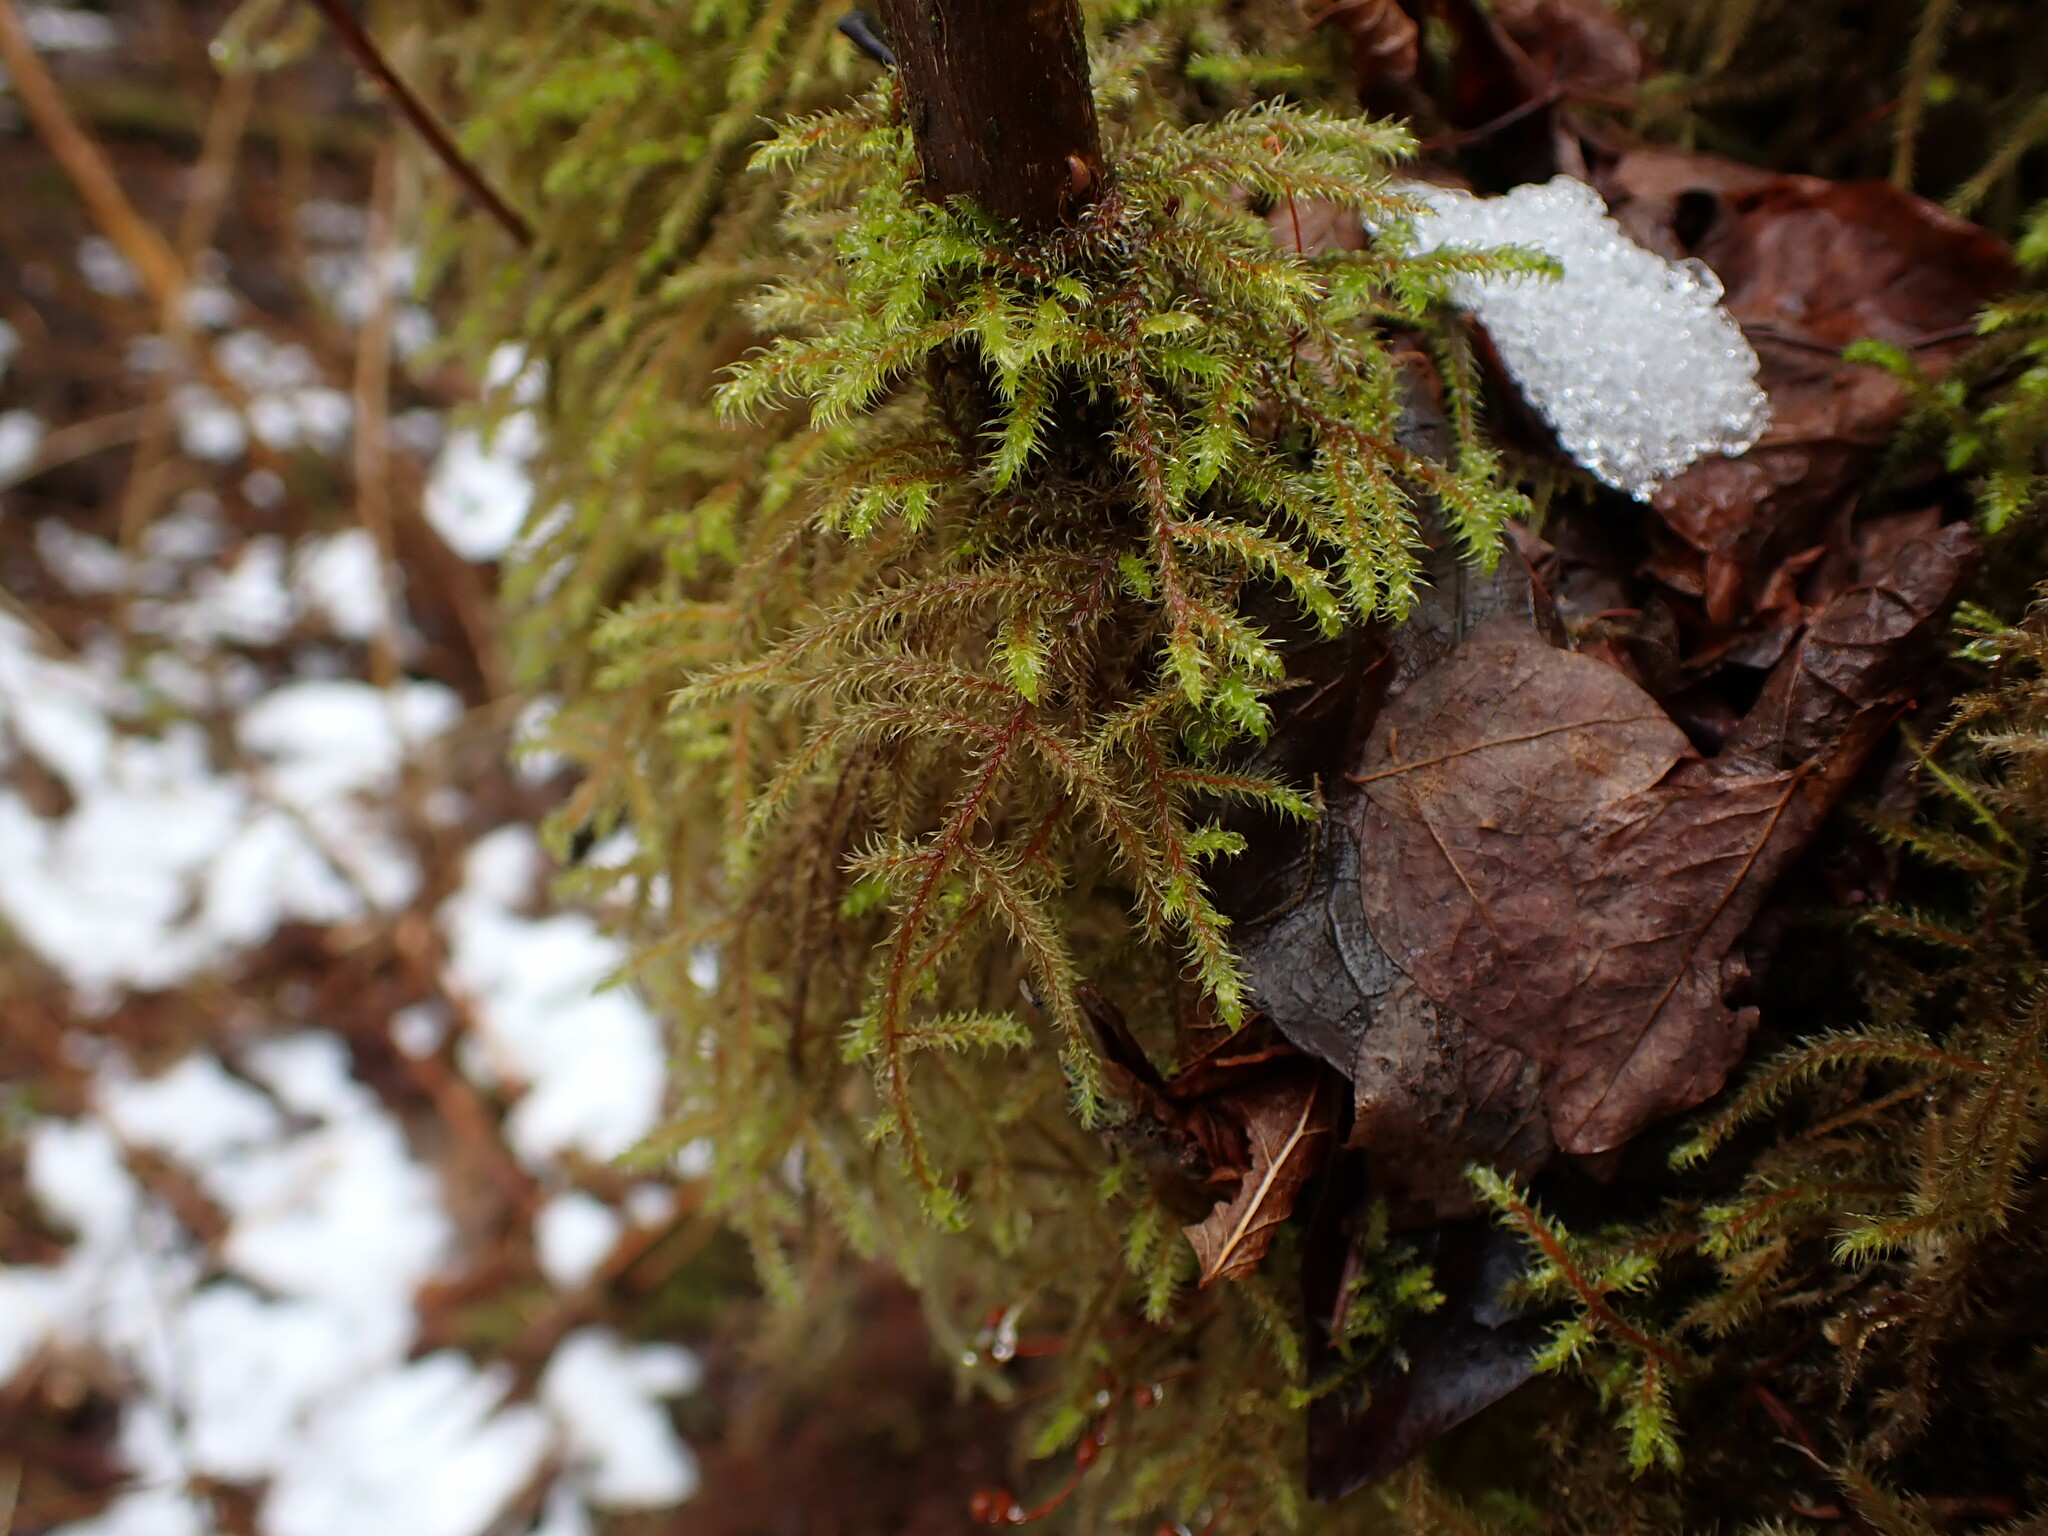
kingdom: Plantae
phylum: Bryophyta
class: Bryopsida
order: Hypnales
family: Hylocomiaceae
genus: Rhytidiadelphus
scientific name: Rhytidiadelphus loreus
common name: Lanky moss
